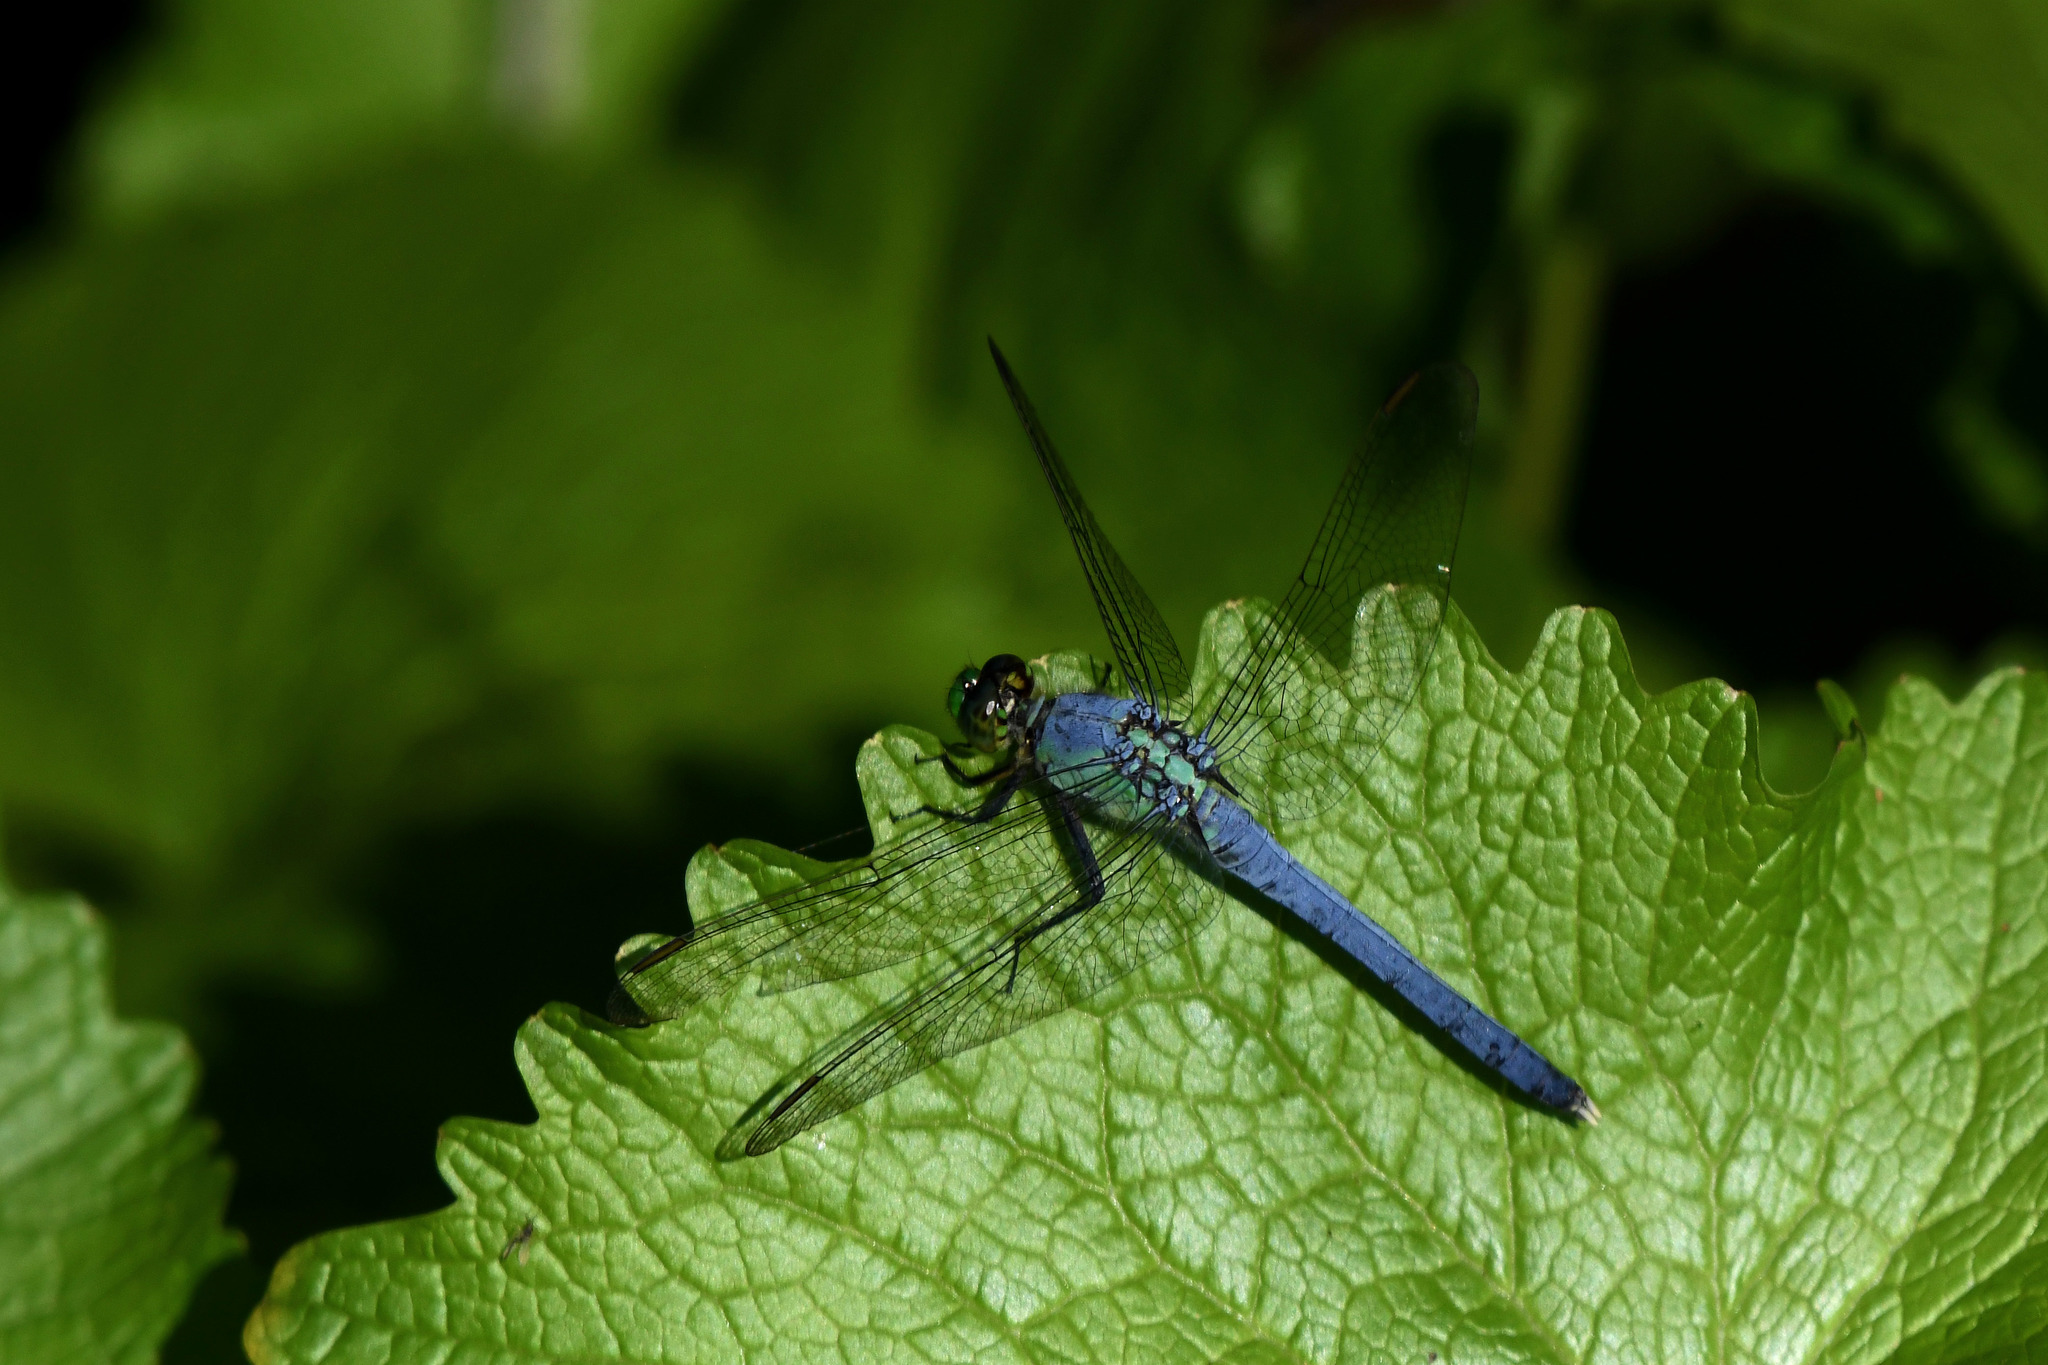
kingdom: Animalia
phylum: Arthropoda
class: Insecta
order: Odonata
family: Libellulidae
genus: Erythemis
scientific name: Erythemis simplicicollis
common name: Eastern pondhawk
